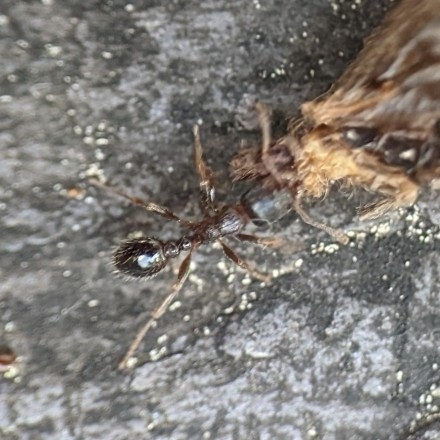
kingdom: Animalia
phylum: Arthropoda
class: Insecta
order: Hymenoptera
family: Formicidae
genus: Tetramorium
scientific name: Tetramorium immigrans
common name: Pavement ant
